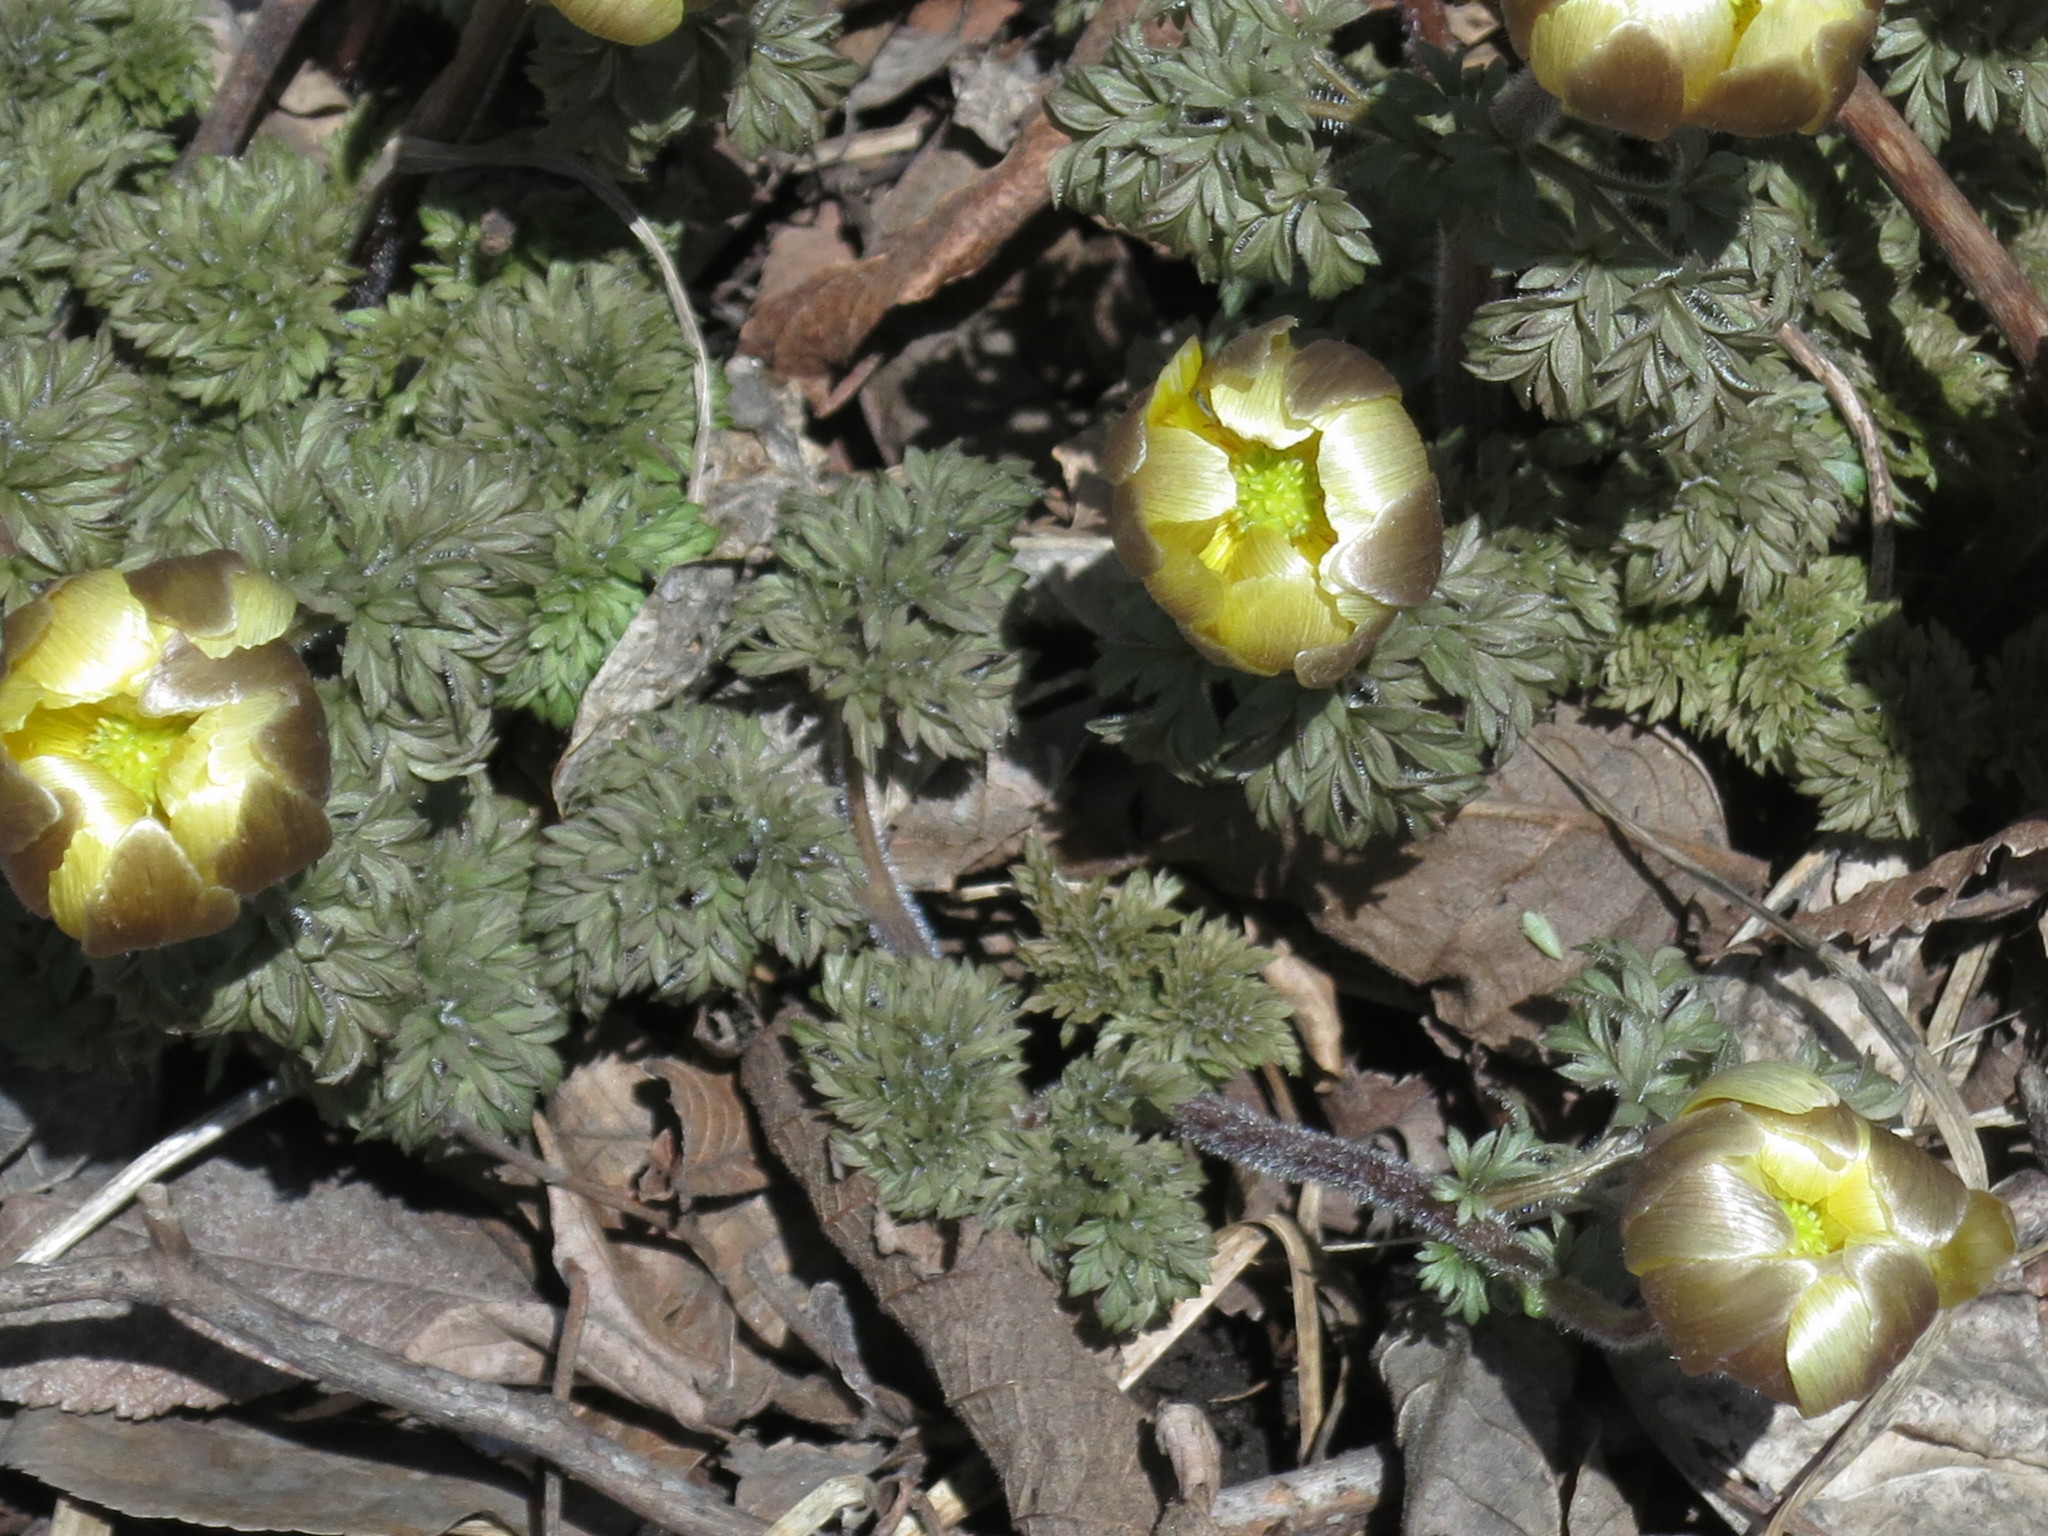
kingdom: Plantae
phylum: Tracheophyta
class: Magnoliopsida
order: Ranunculales
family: Ranunculaceae
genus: Adonis
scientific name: Adonis amurensis
